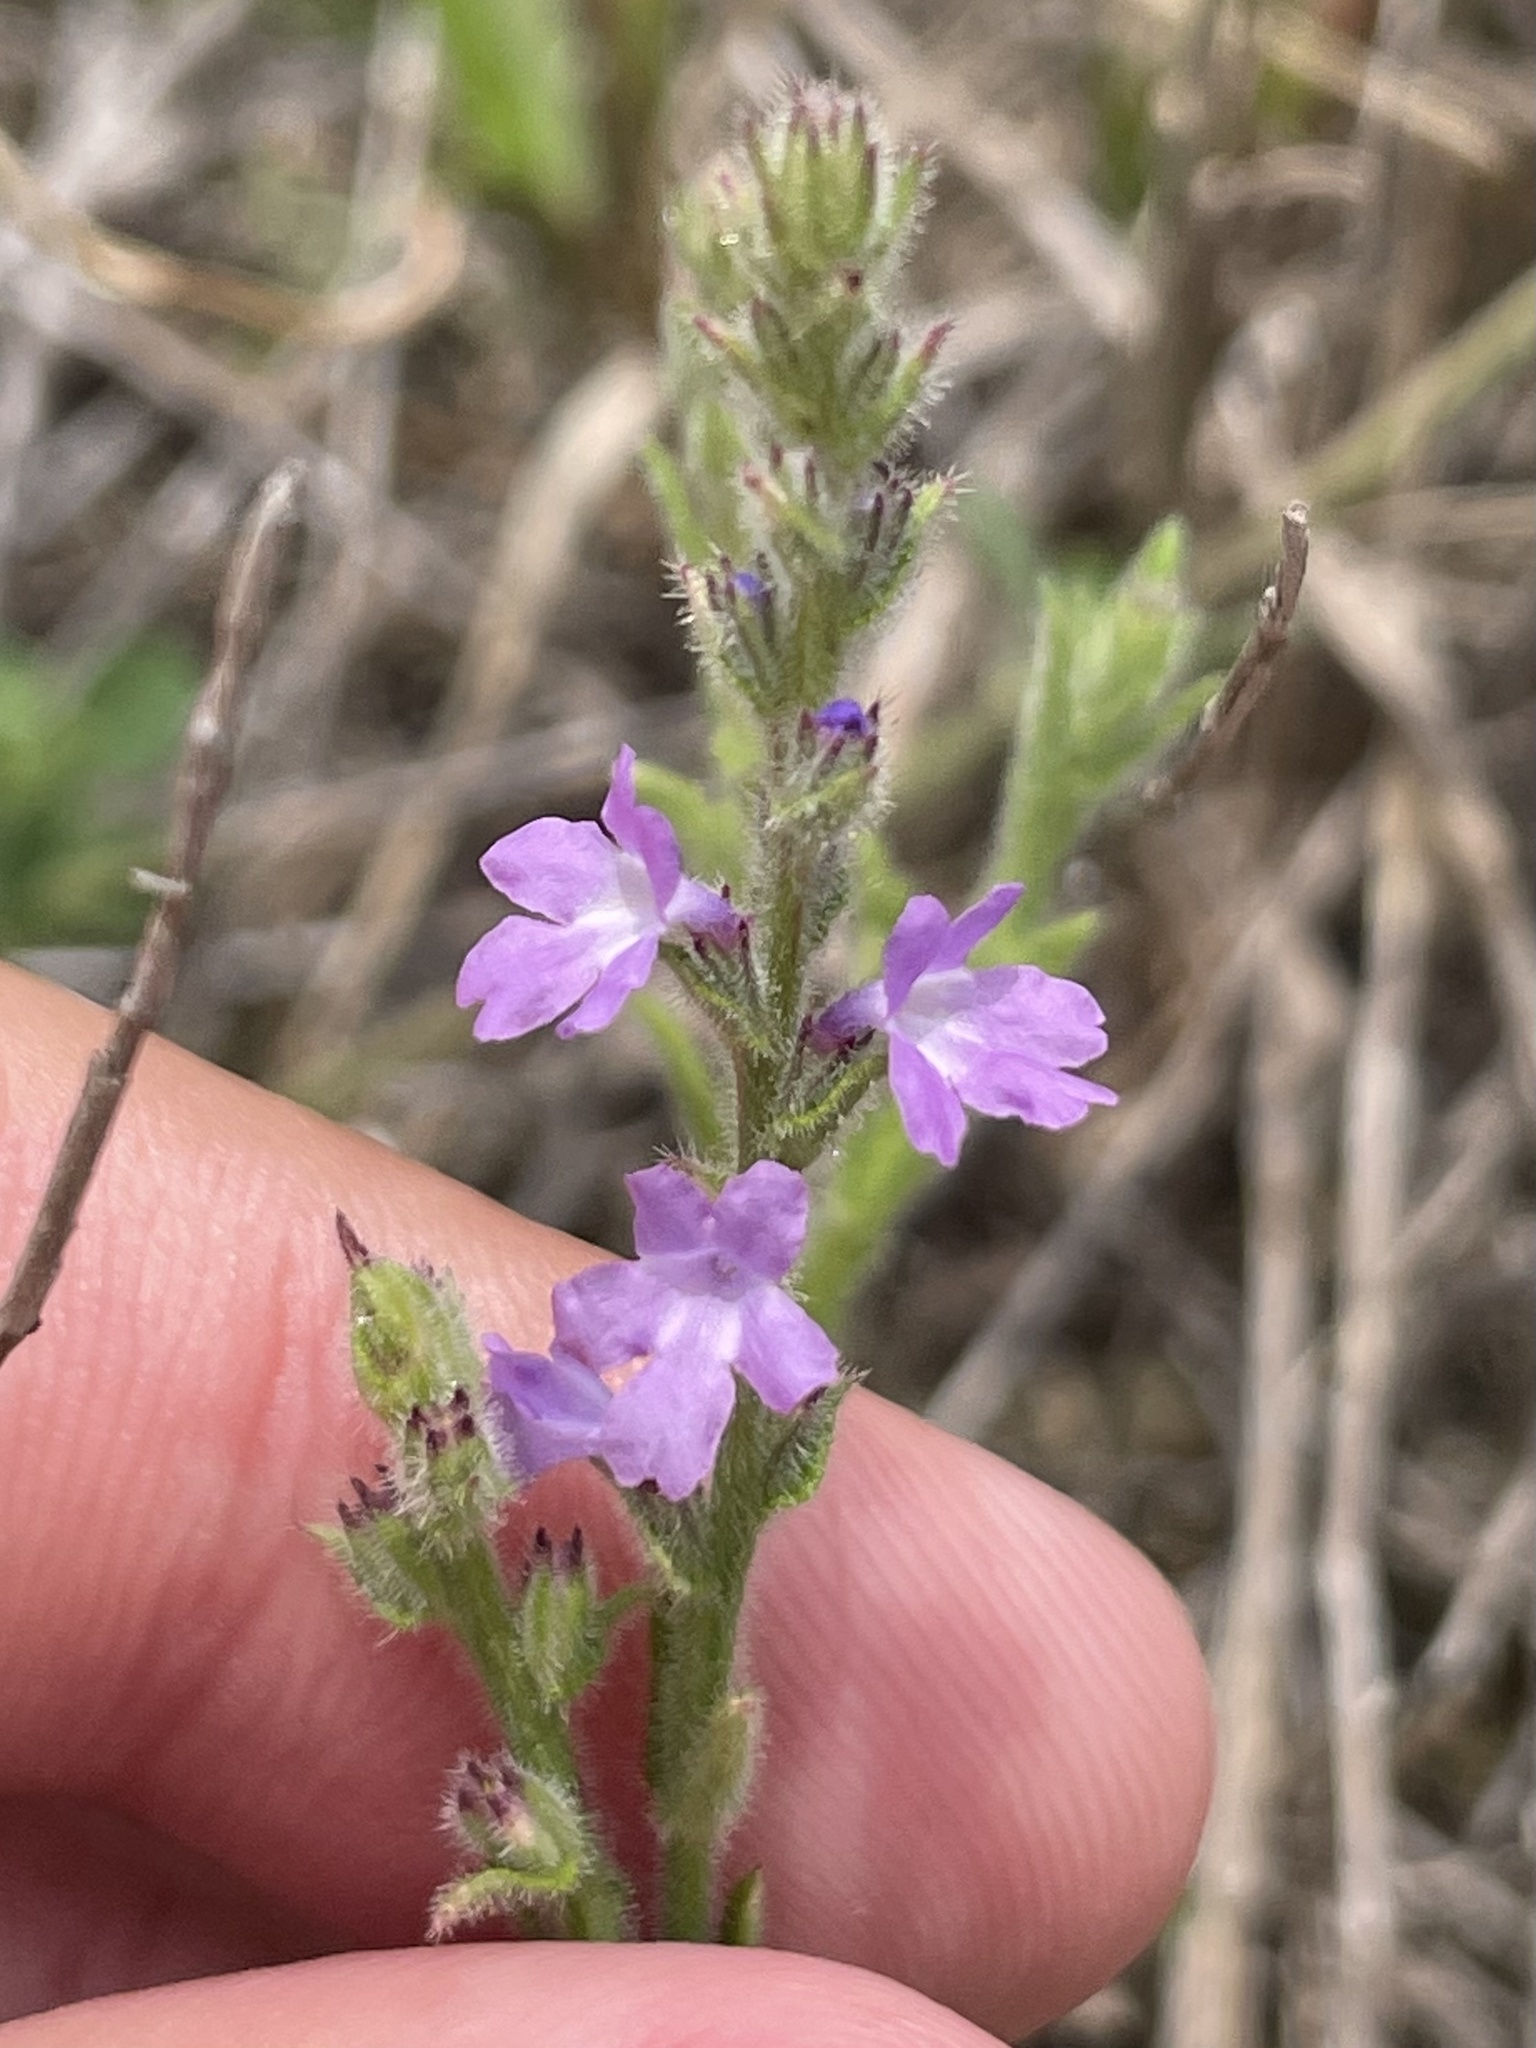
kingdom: Plantae
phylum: Tracheophyta
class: Magnoliopsida
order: Lamiales
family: Verbenaceae
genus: Verbena
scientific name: Verbena canescens
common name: Gray vervain
